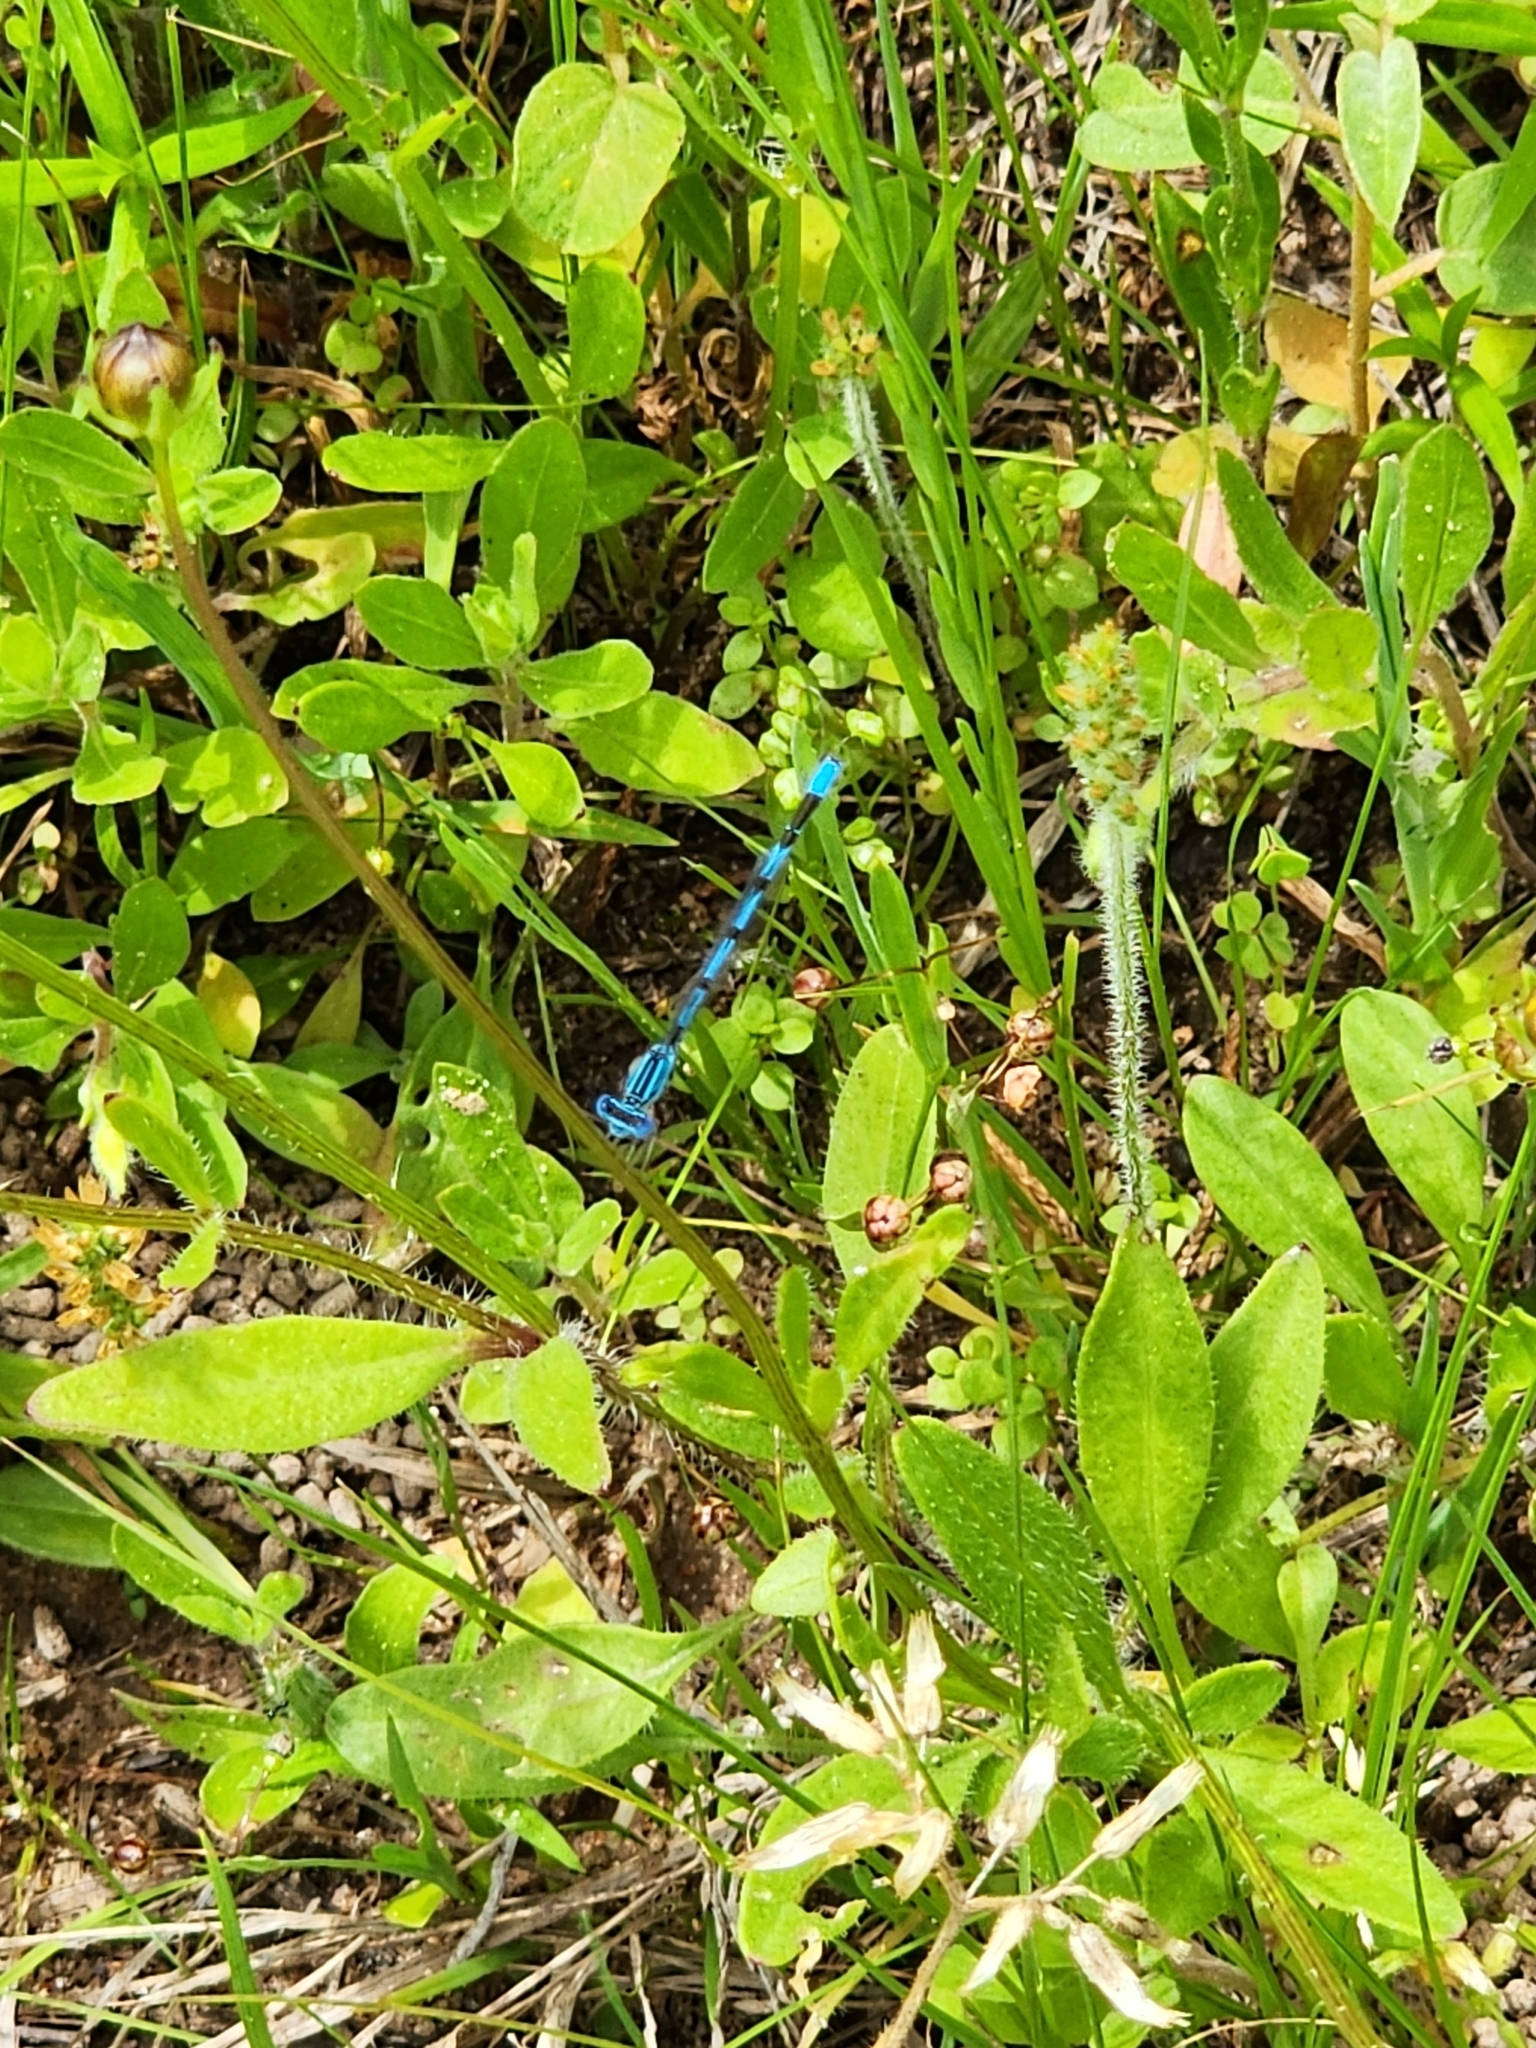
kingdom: Animalia
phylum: Arthropoda
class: Insecta
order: Odonata
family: Coenagrionidae
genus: Enallagma
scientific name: Enallagma basidens
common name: Double-striped bluet
